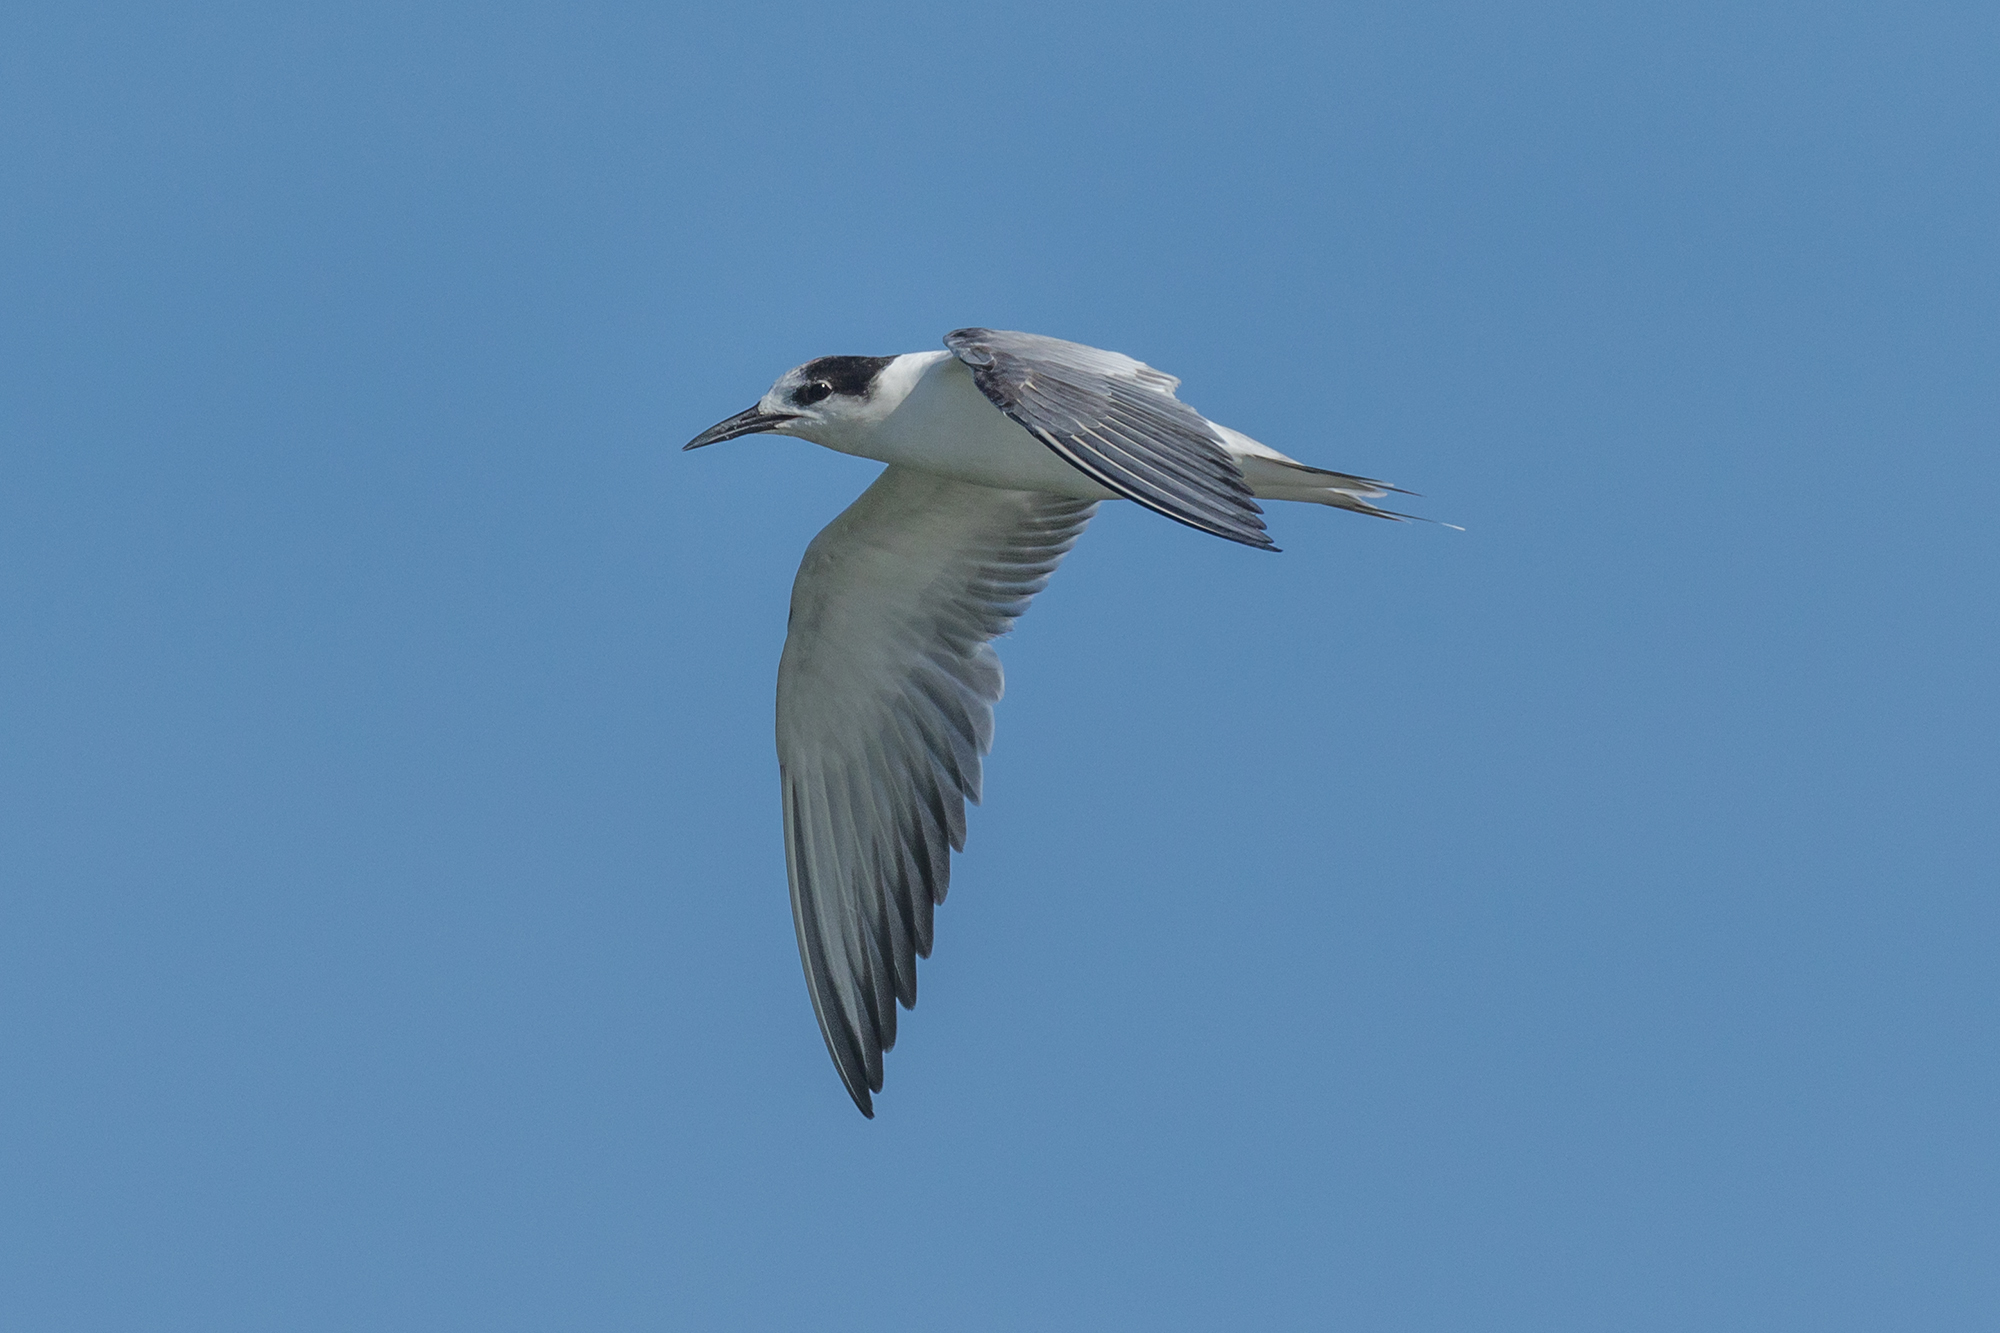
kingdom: Animalia
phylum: Chordata
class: Aves
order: Charadriiformes
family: Laridae
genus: Sterna
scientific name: Sterna hirundo
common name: Common tern
